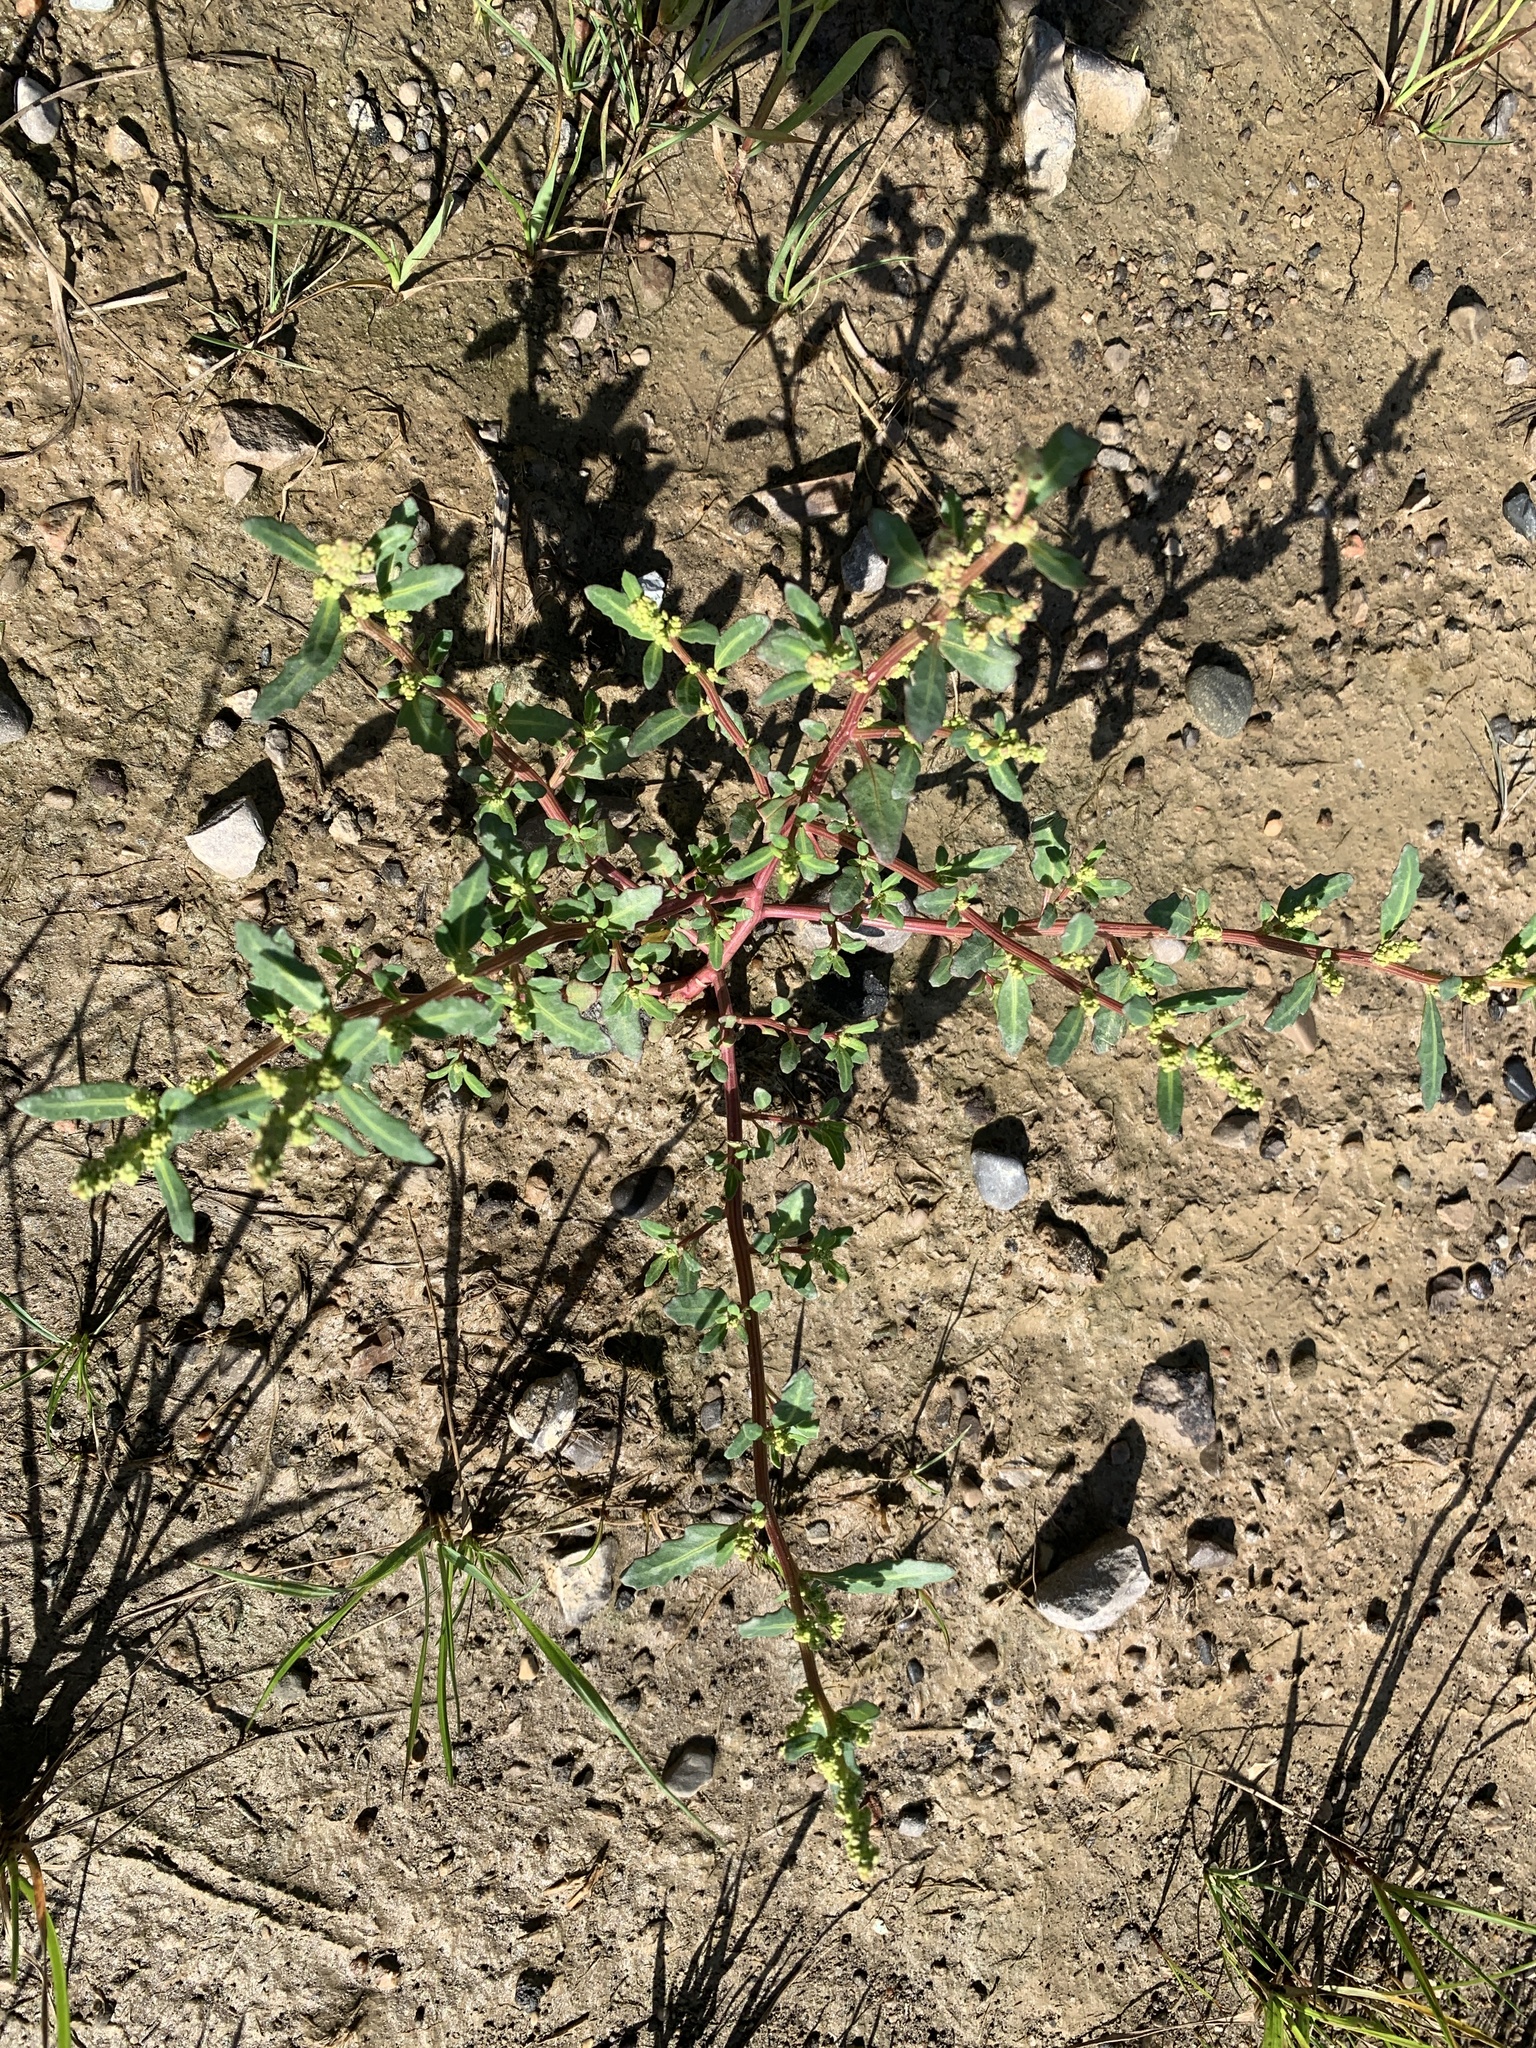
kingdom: Plantae
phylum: Tracheophyta
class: Magnoliopsida
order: Caryophyllales
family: Amaranthaceae
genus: Oxybasis
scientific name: Oxybasis glauca
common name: Glaucous goosefoot
